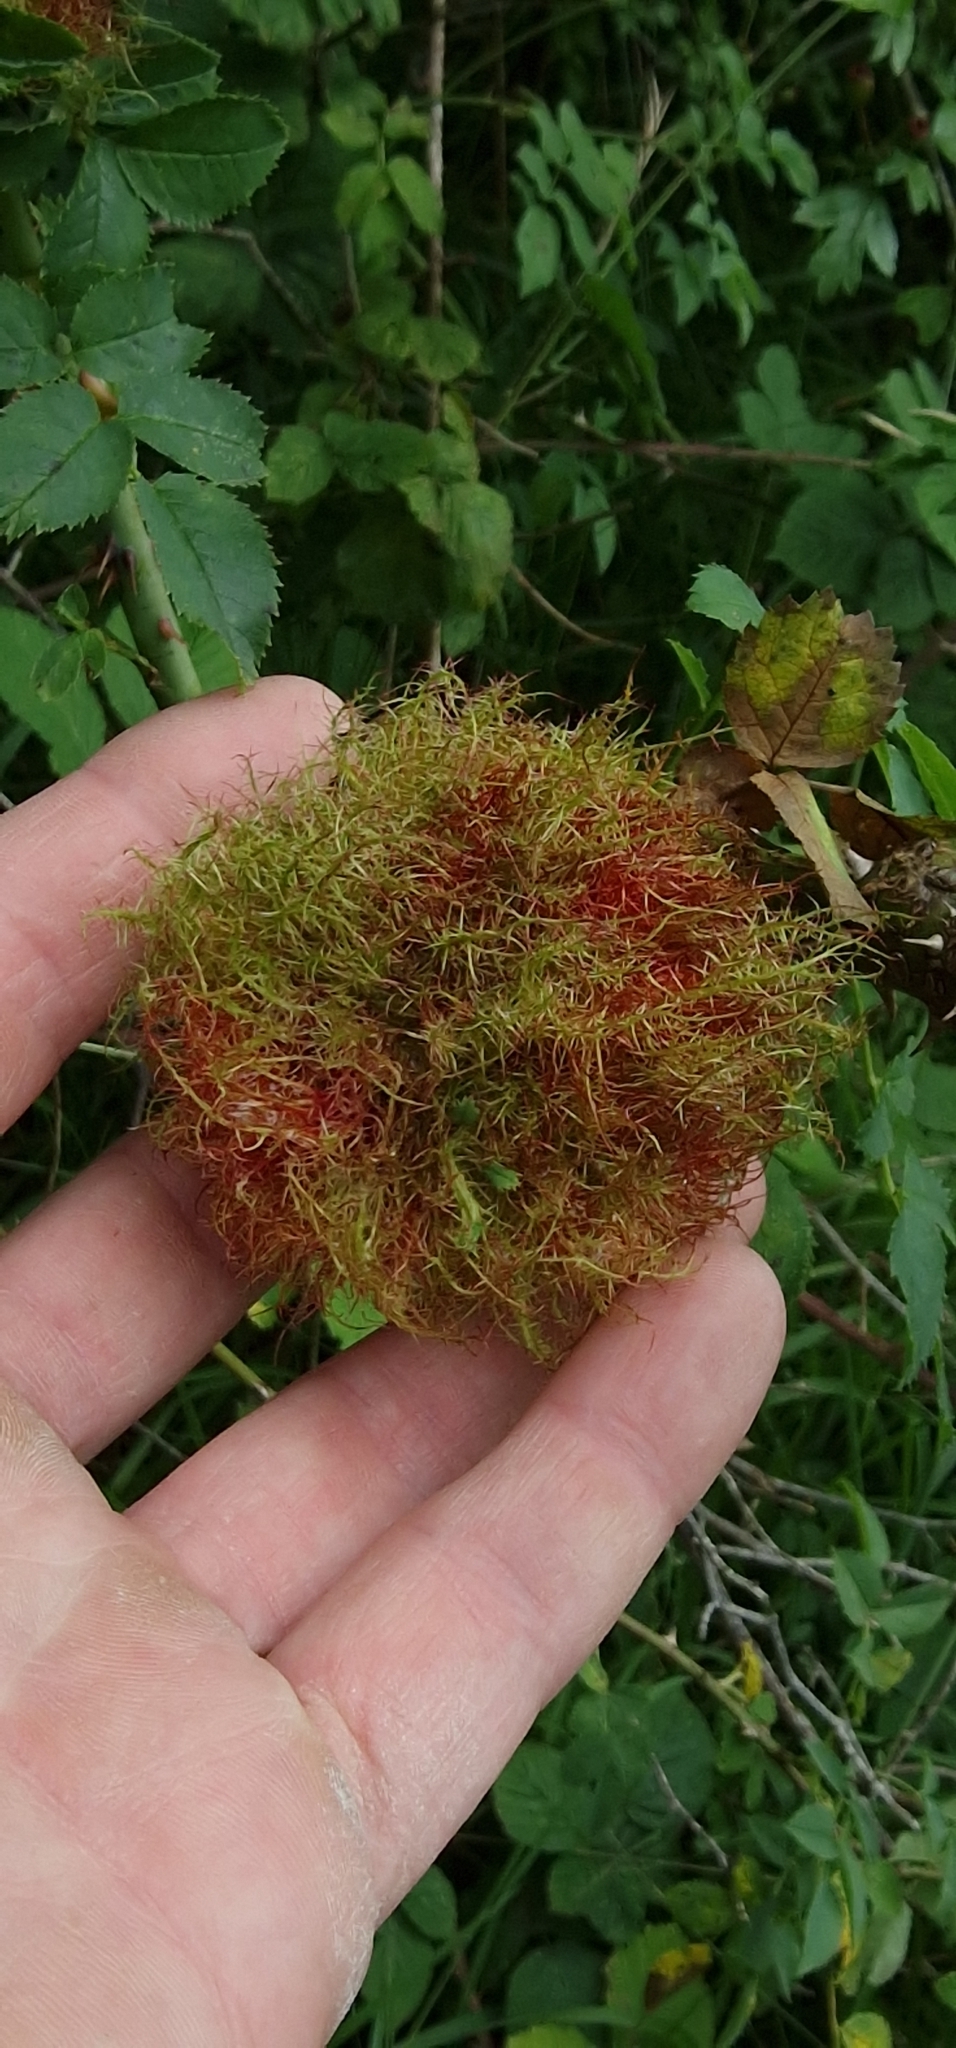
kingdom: Animalia
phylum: Arthropoda
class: Insecta
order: Hymenoptera
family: Cynipidae
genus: Diplolepis
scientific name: Diplolepis rosae
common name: Bedeguar gall
